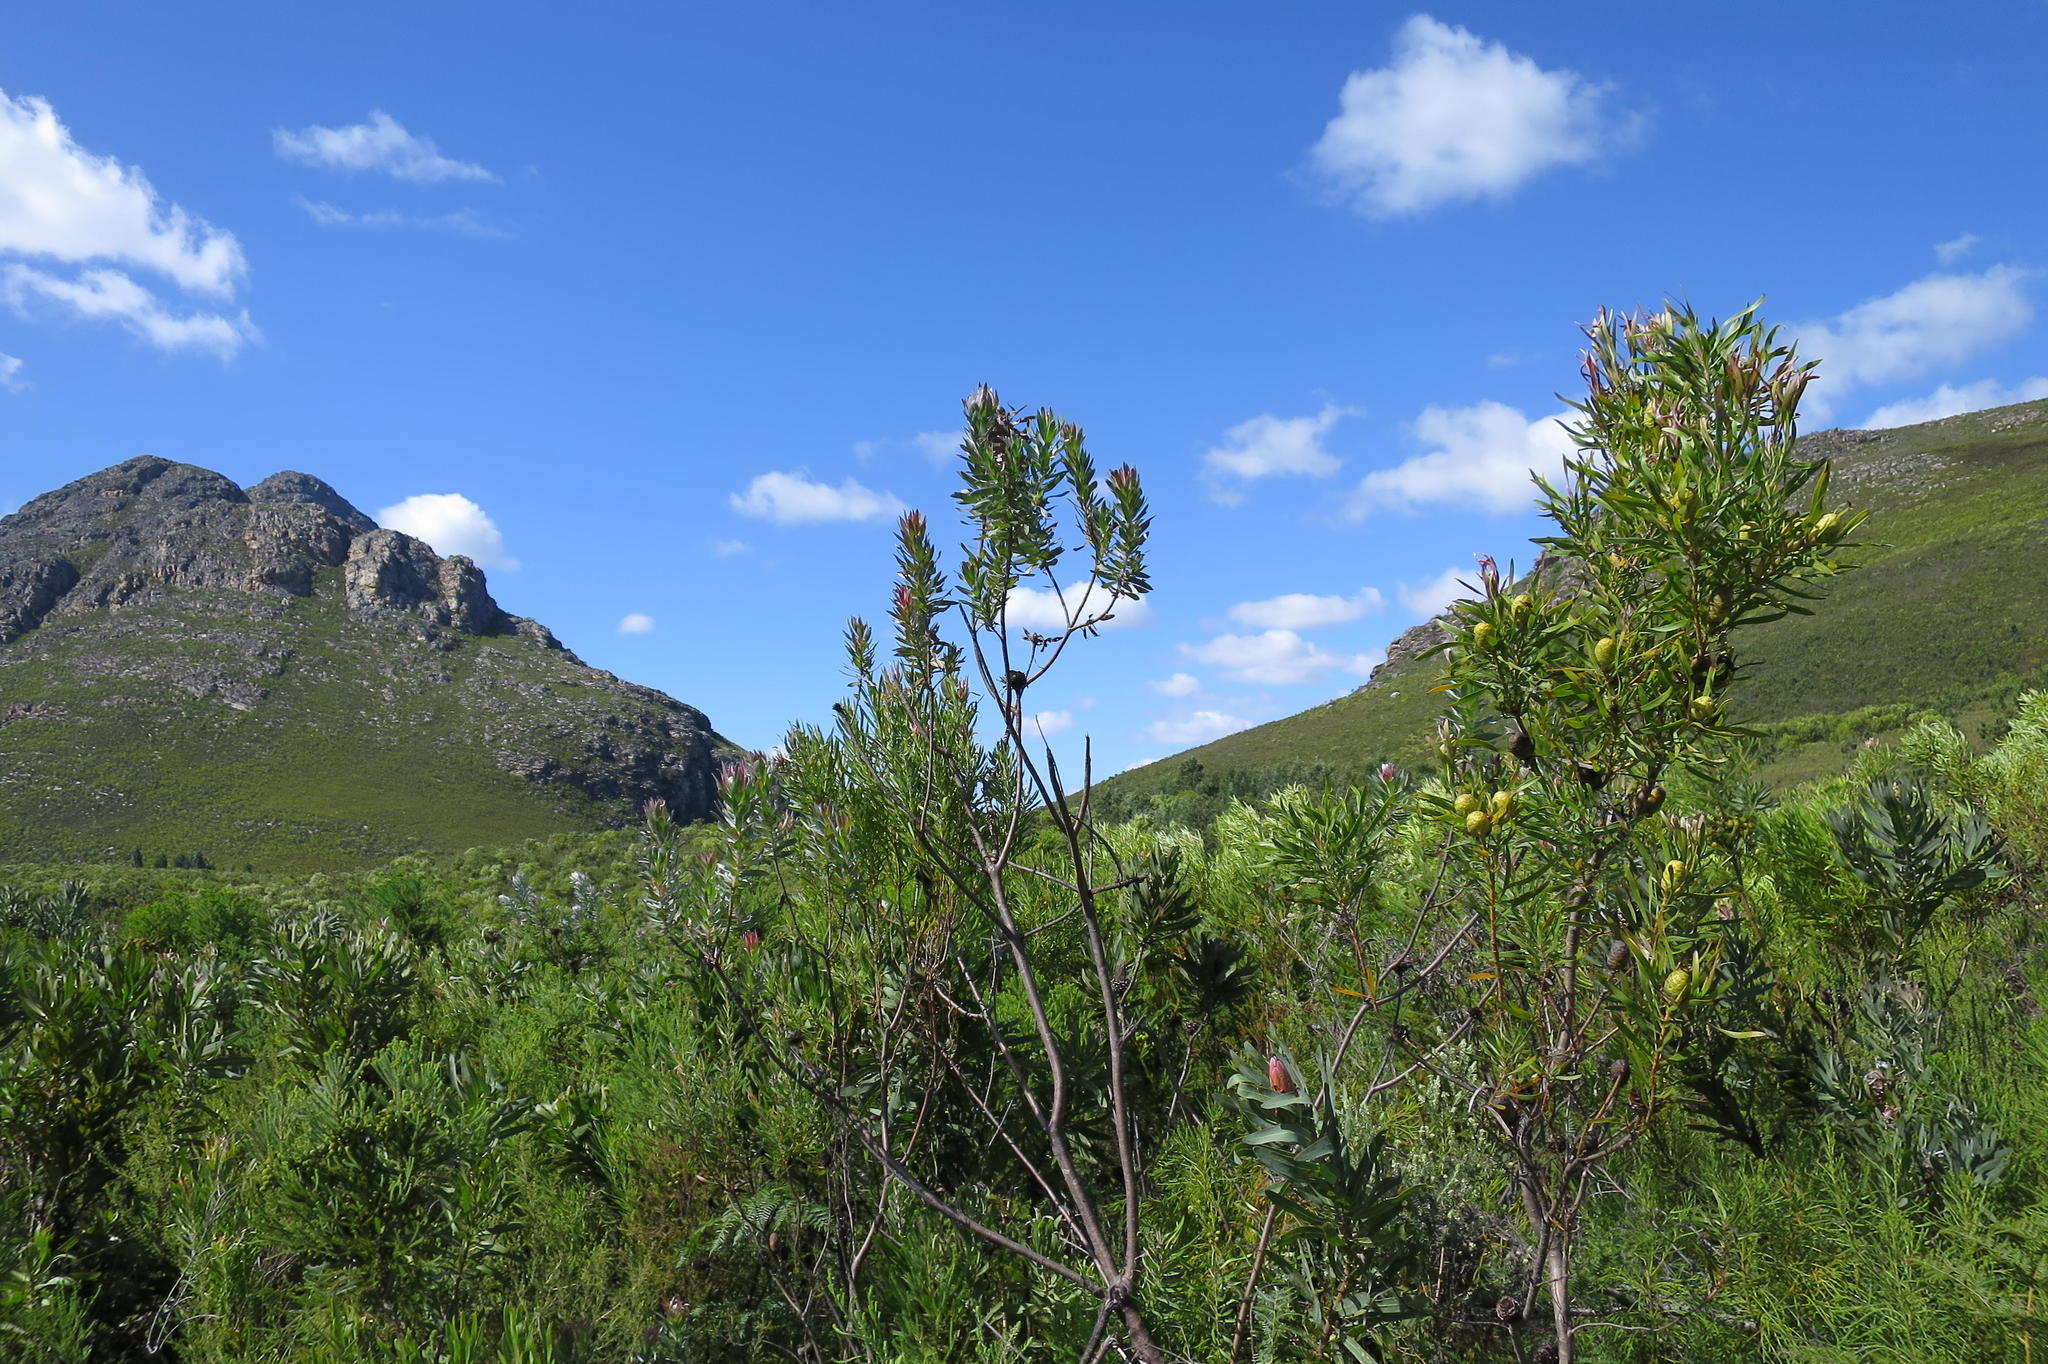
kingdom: Plantae
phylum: Tracheophyta
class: Magnoliopsida
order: Proteales
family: Proteaceae
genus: Protea
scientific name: Protea coronata
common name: Green sugarbush
